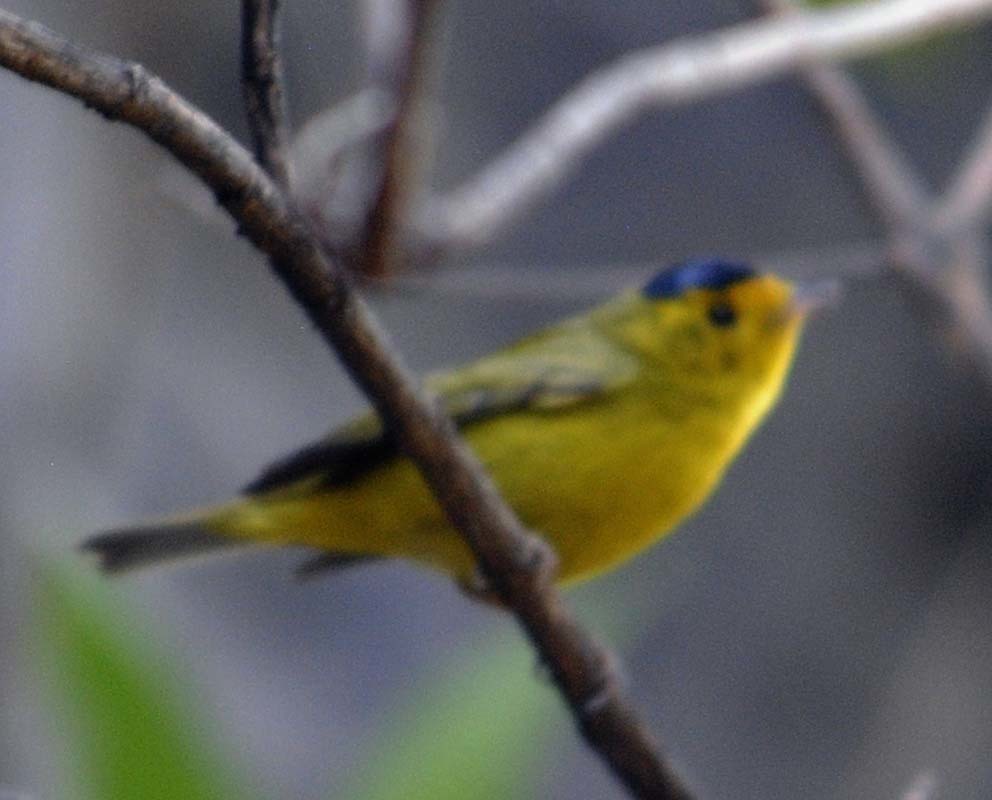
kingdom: Animalia
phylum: Chordata
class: Aves
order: Passeriformes
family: Parulidae
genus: Cardellina
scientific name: Cardellina pusilla
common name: Wilson's warbler
